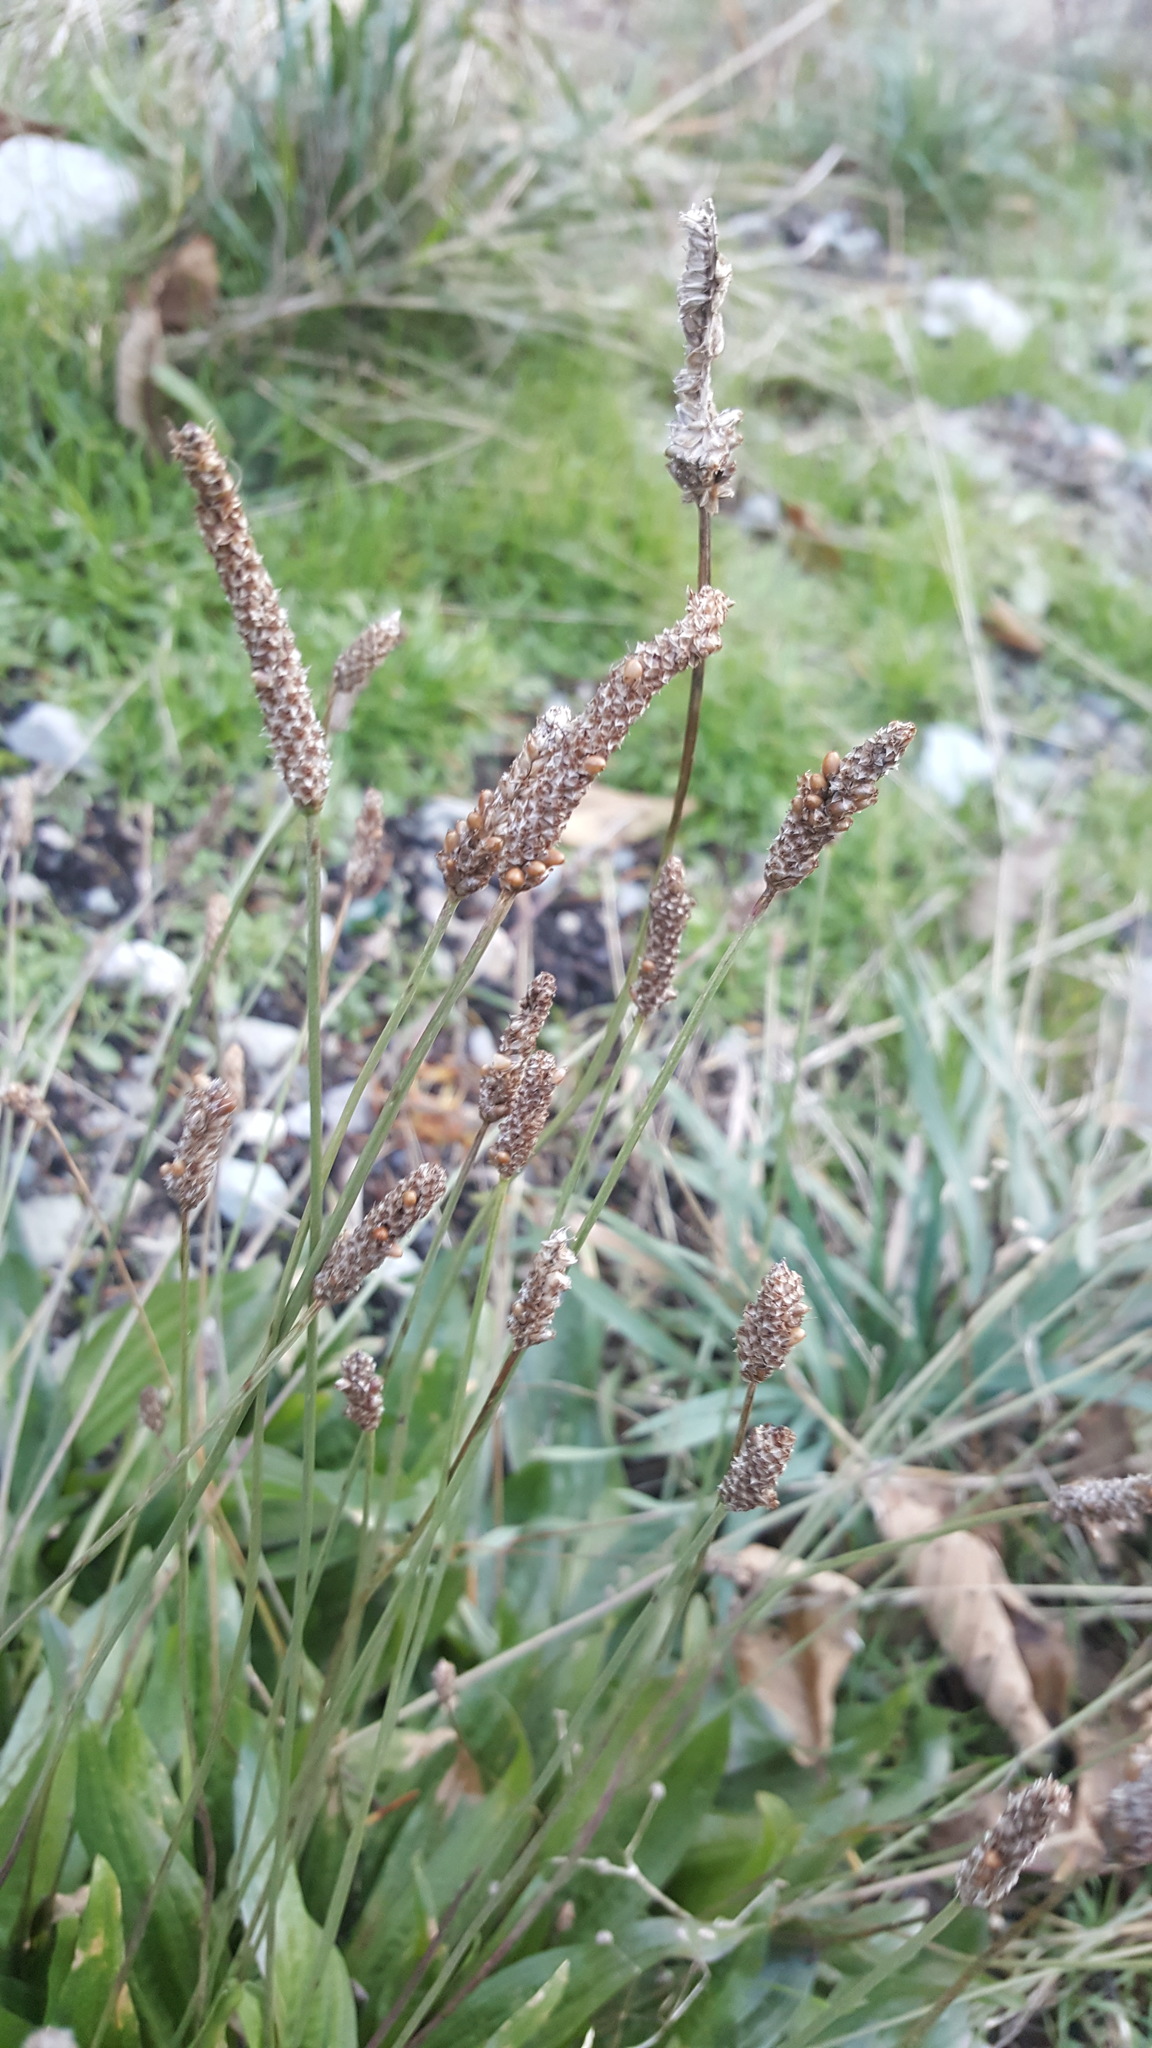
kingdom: Plantae
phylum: Tracheophyta
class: Magnoliopsida
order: Lamiales
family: Plantaginaceae
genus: Plantago
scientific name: Plantago lanceolata
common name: Ribwort plantain
